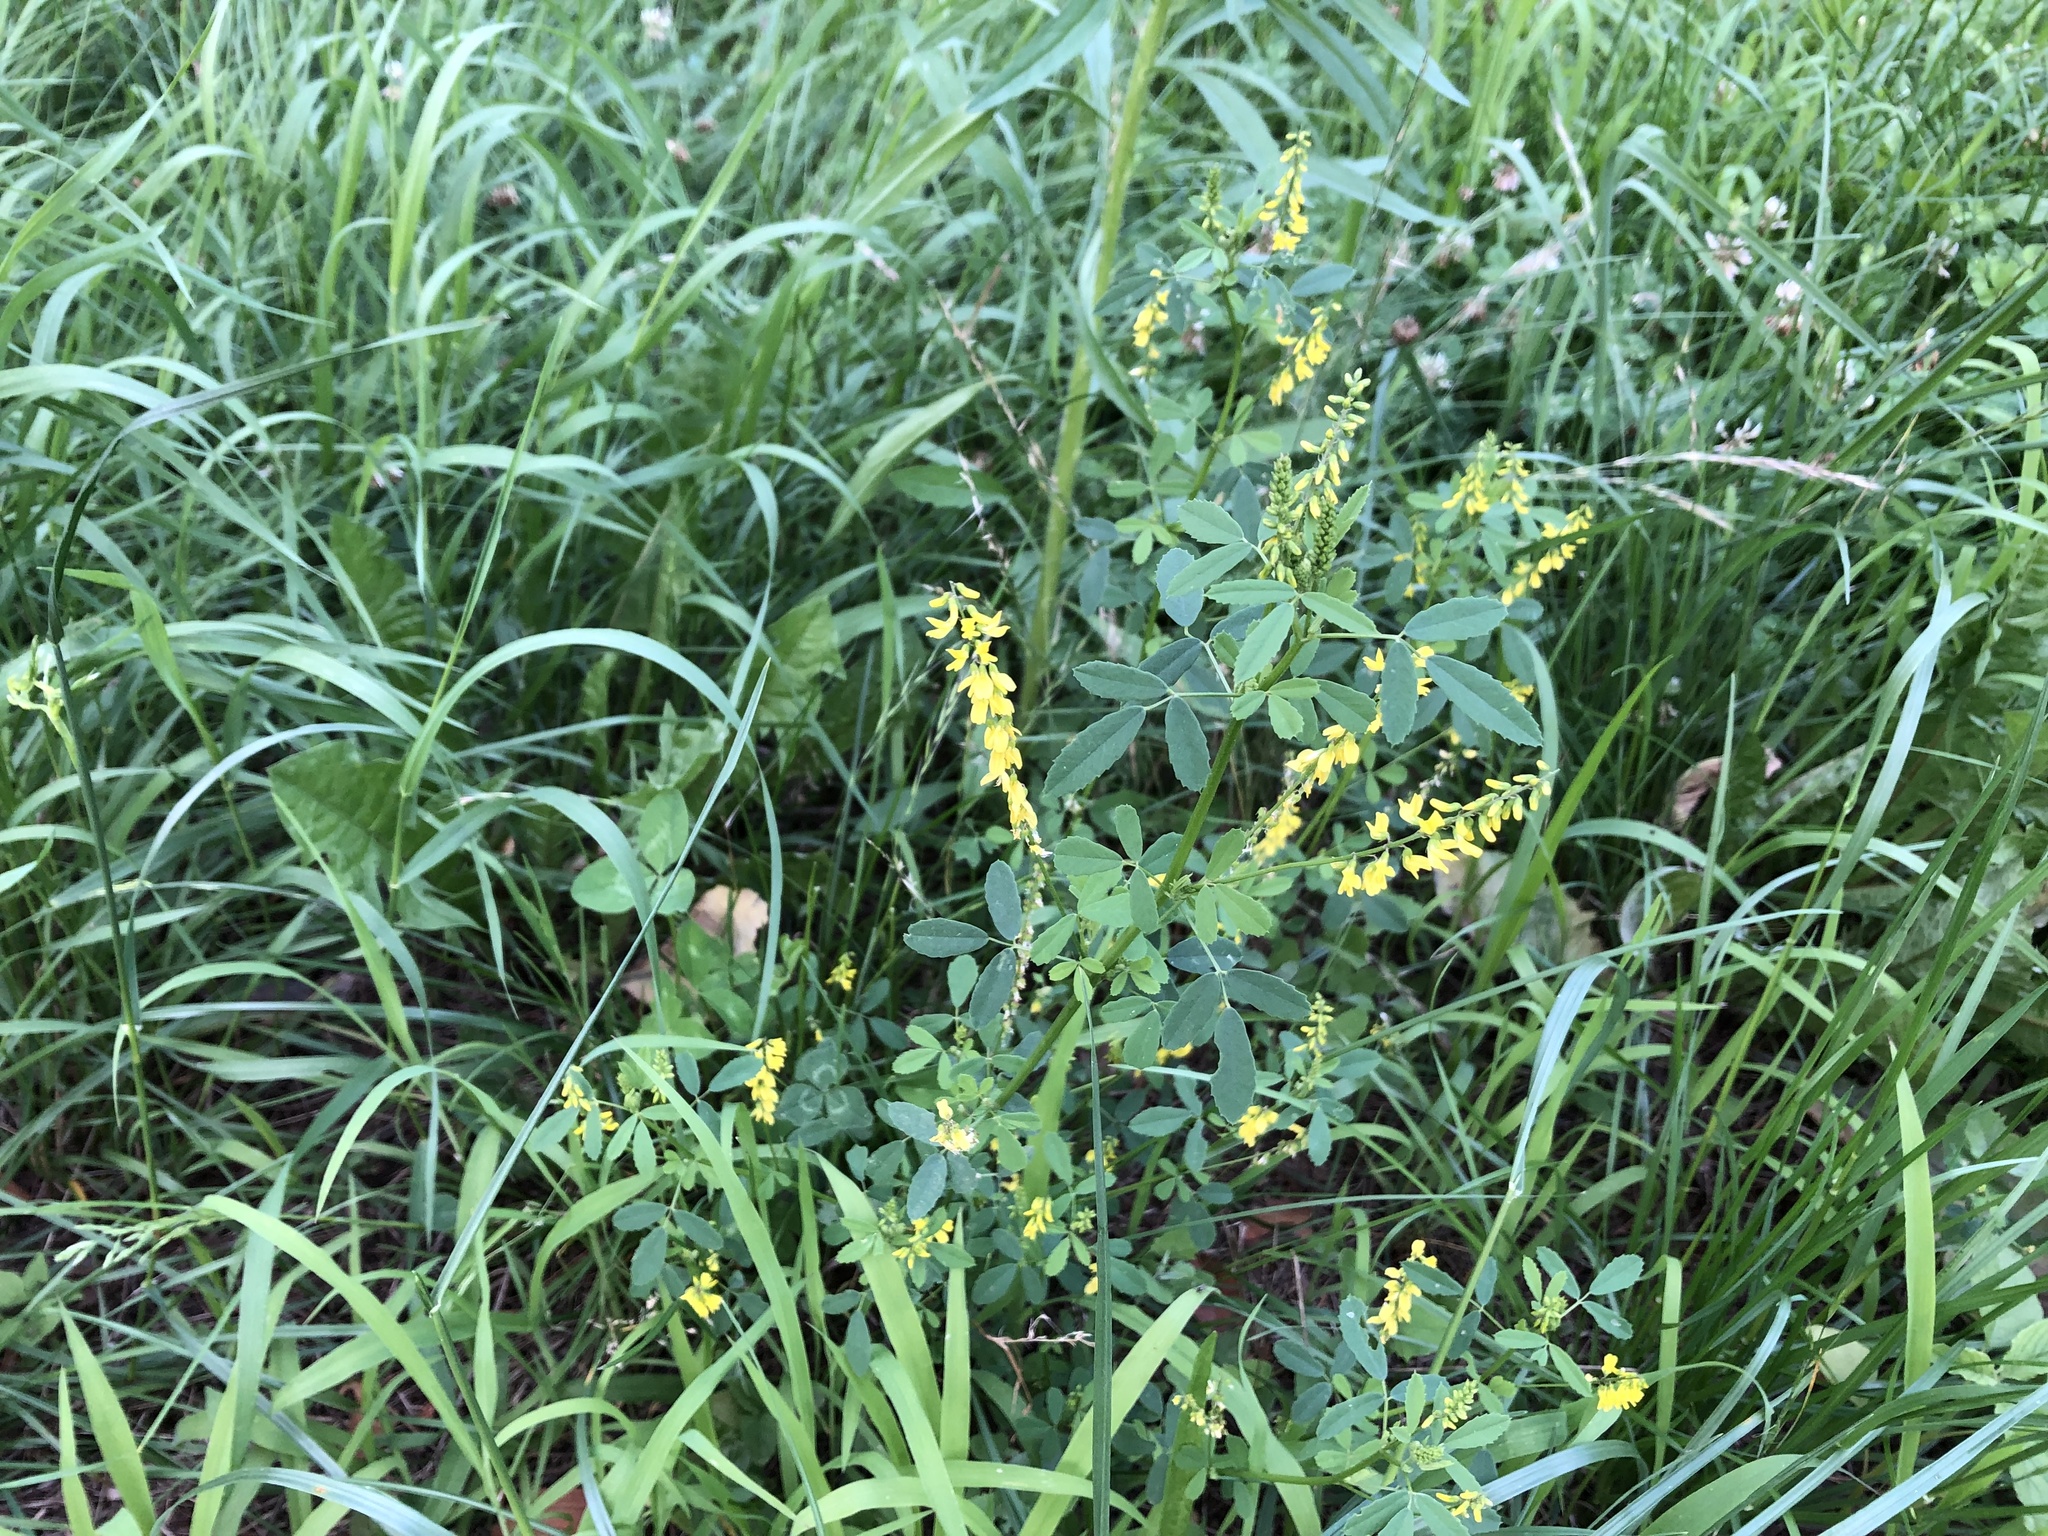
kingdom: Plantae
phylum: Tracheophyta
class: Magnoliopsida
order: Fabales
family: Fabaceae
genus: Melilotus
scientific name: Melilotus officinalis
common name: Sweetclover
